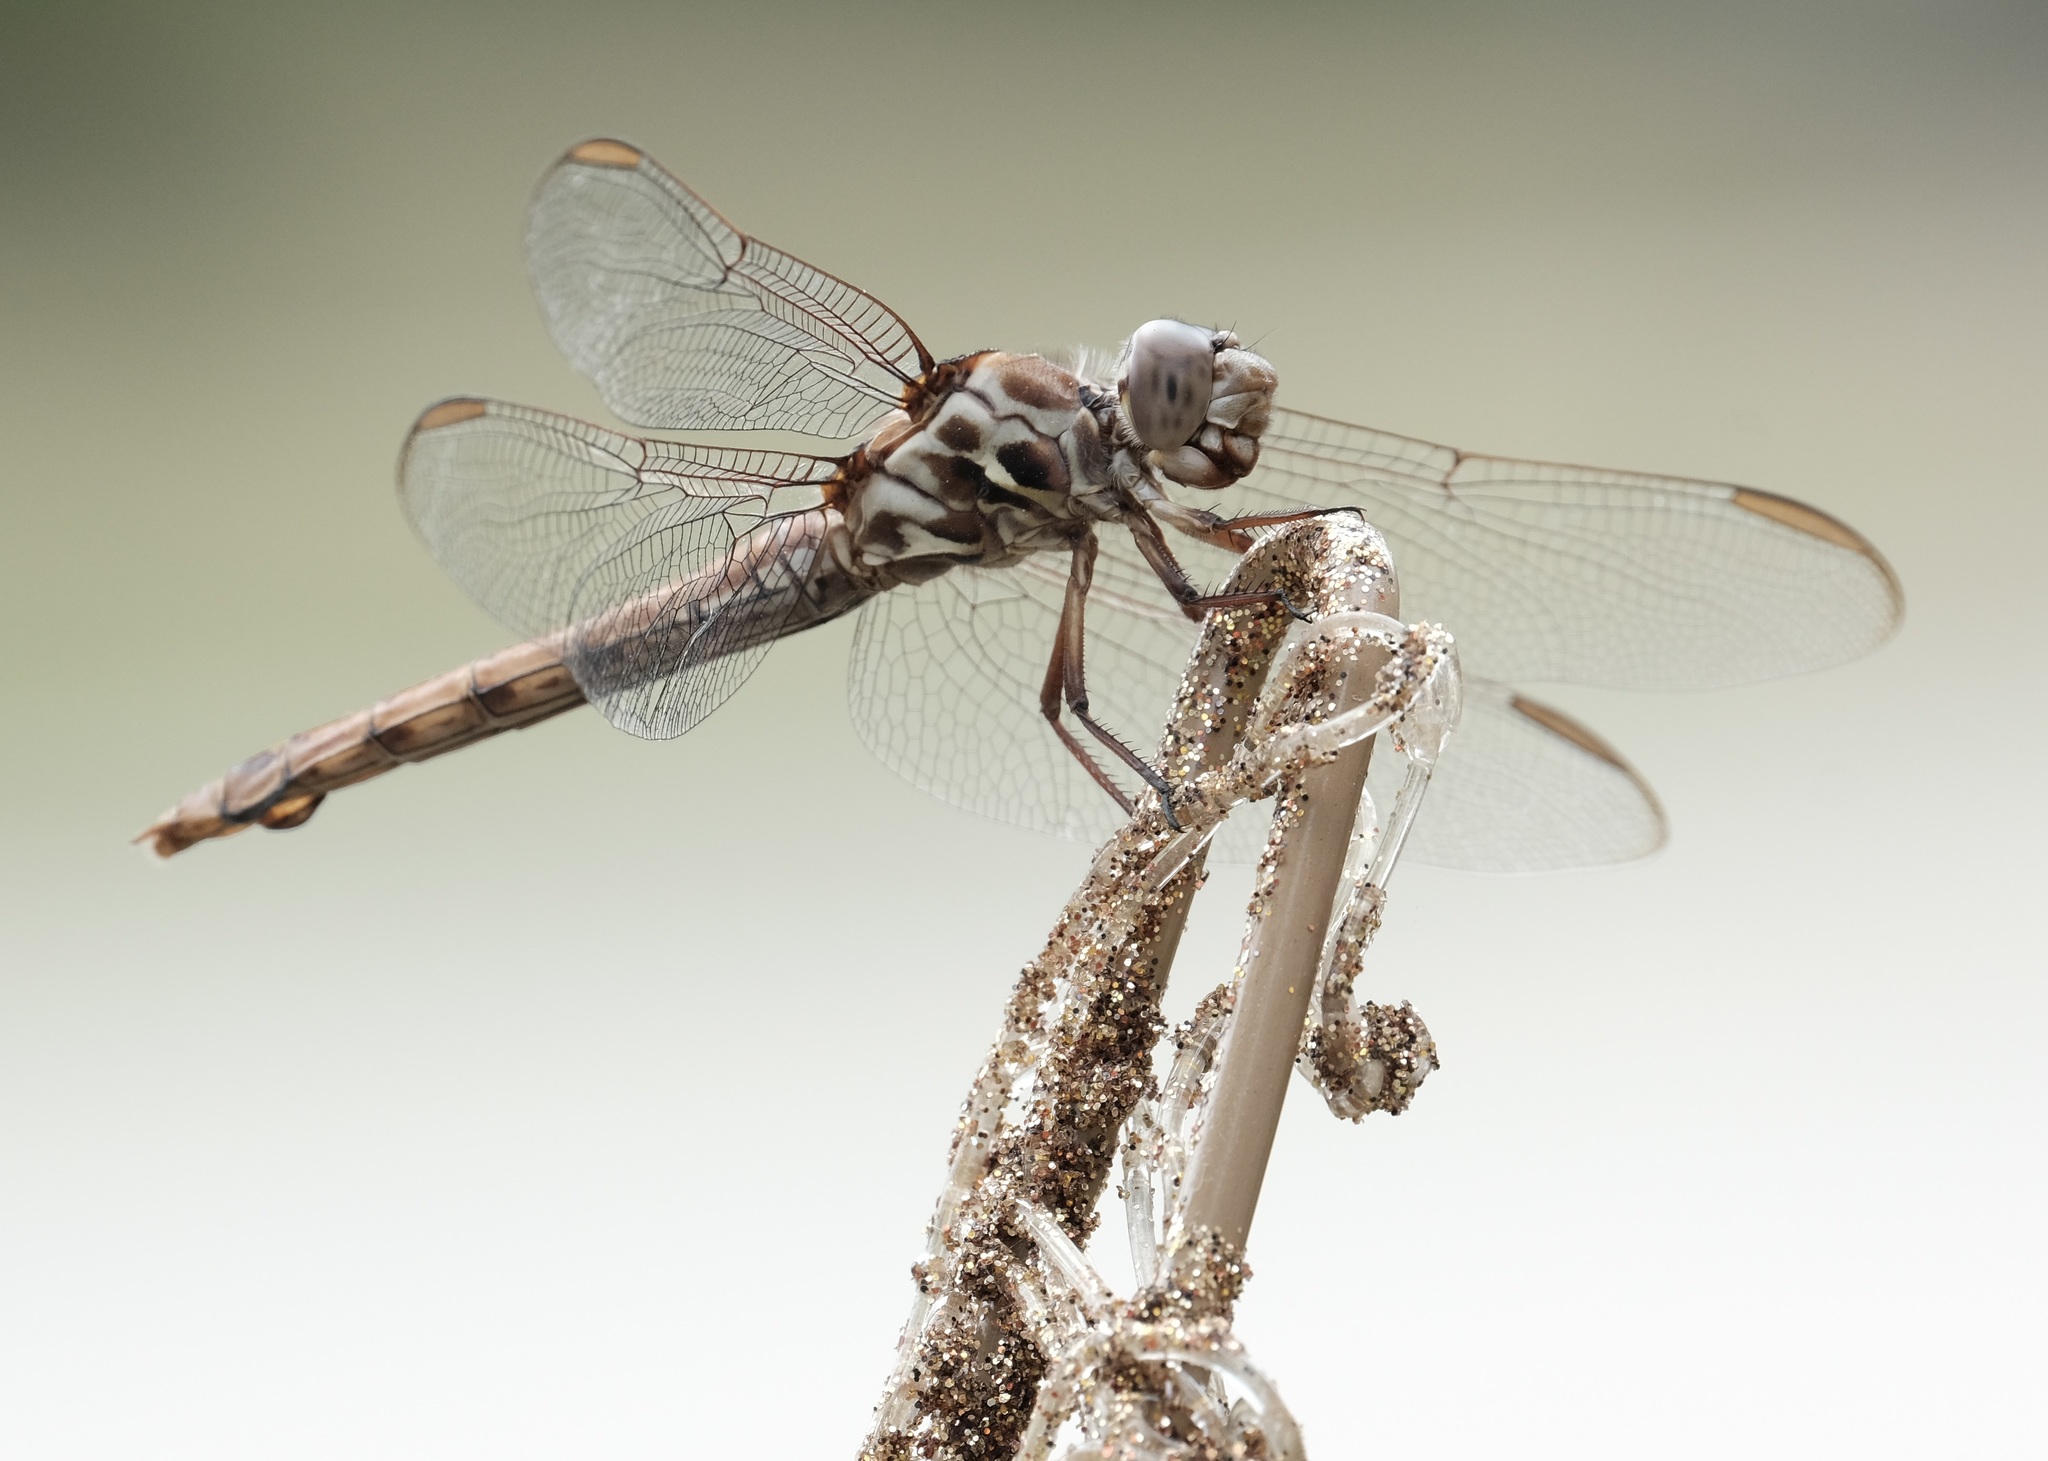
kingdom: Animalia
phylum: Arthropoda
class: Insecta
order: Odonata
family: Libellulidae
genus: Orthemis
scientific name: Orthemis ferruginea
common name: Roseate skimmer
